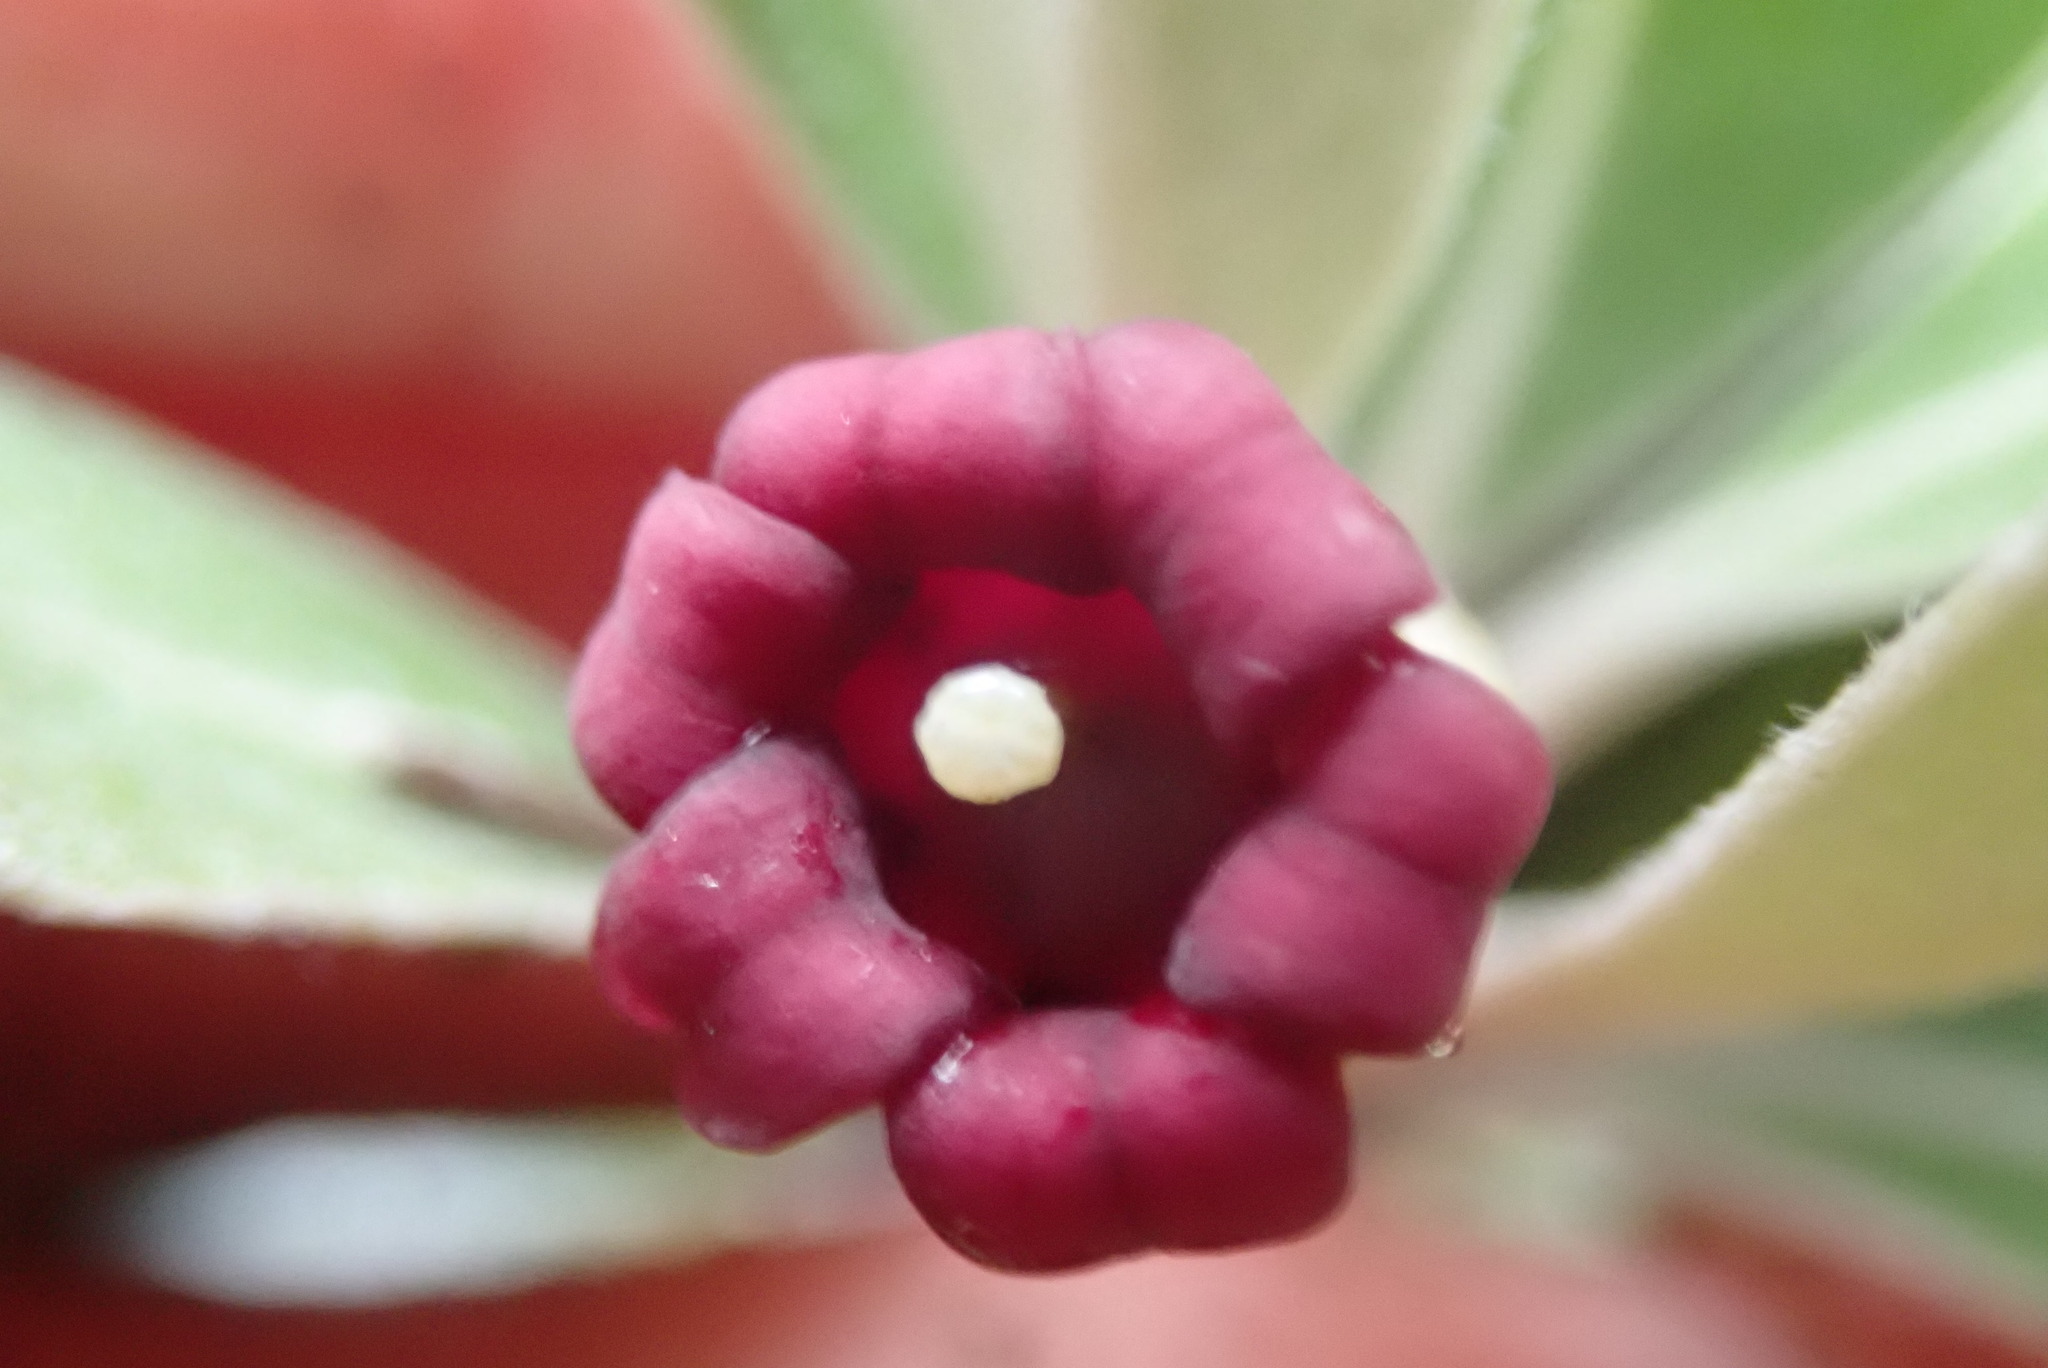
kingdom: Plantae
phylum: Tracheophyta
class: Magnoliopsida
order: Apiales
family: Pittosporaceae
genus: Pittosporum
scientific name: Pittosporum crassifolium
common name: Karo
